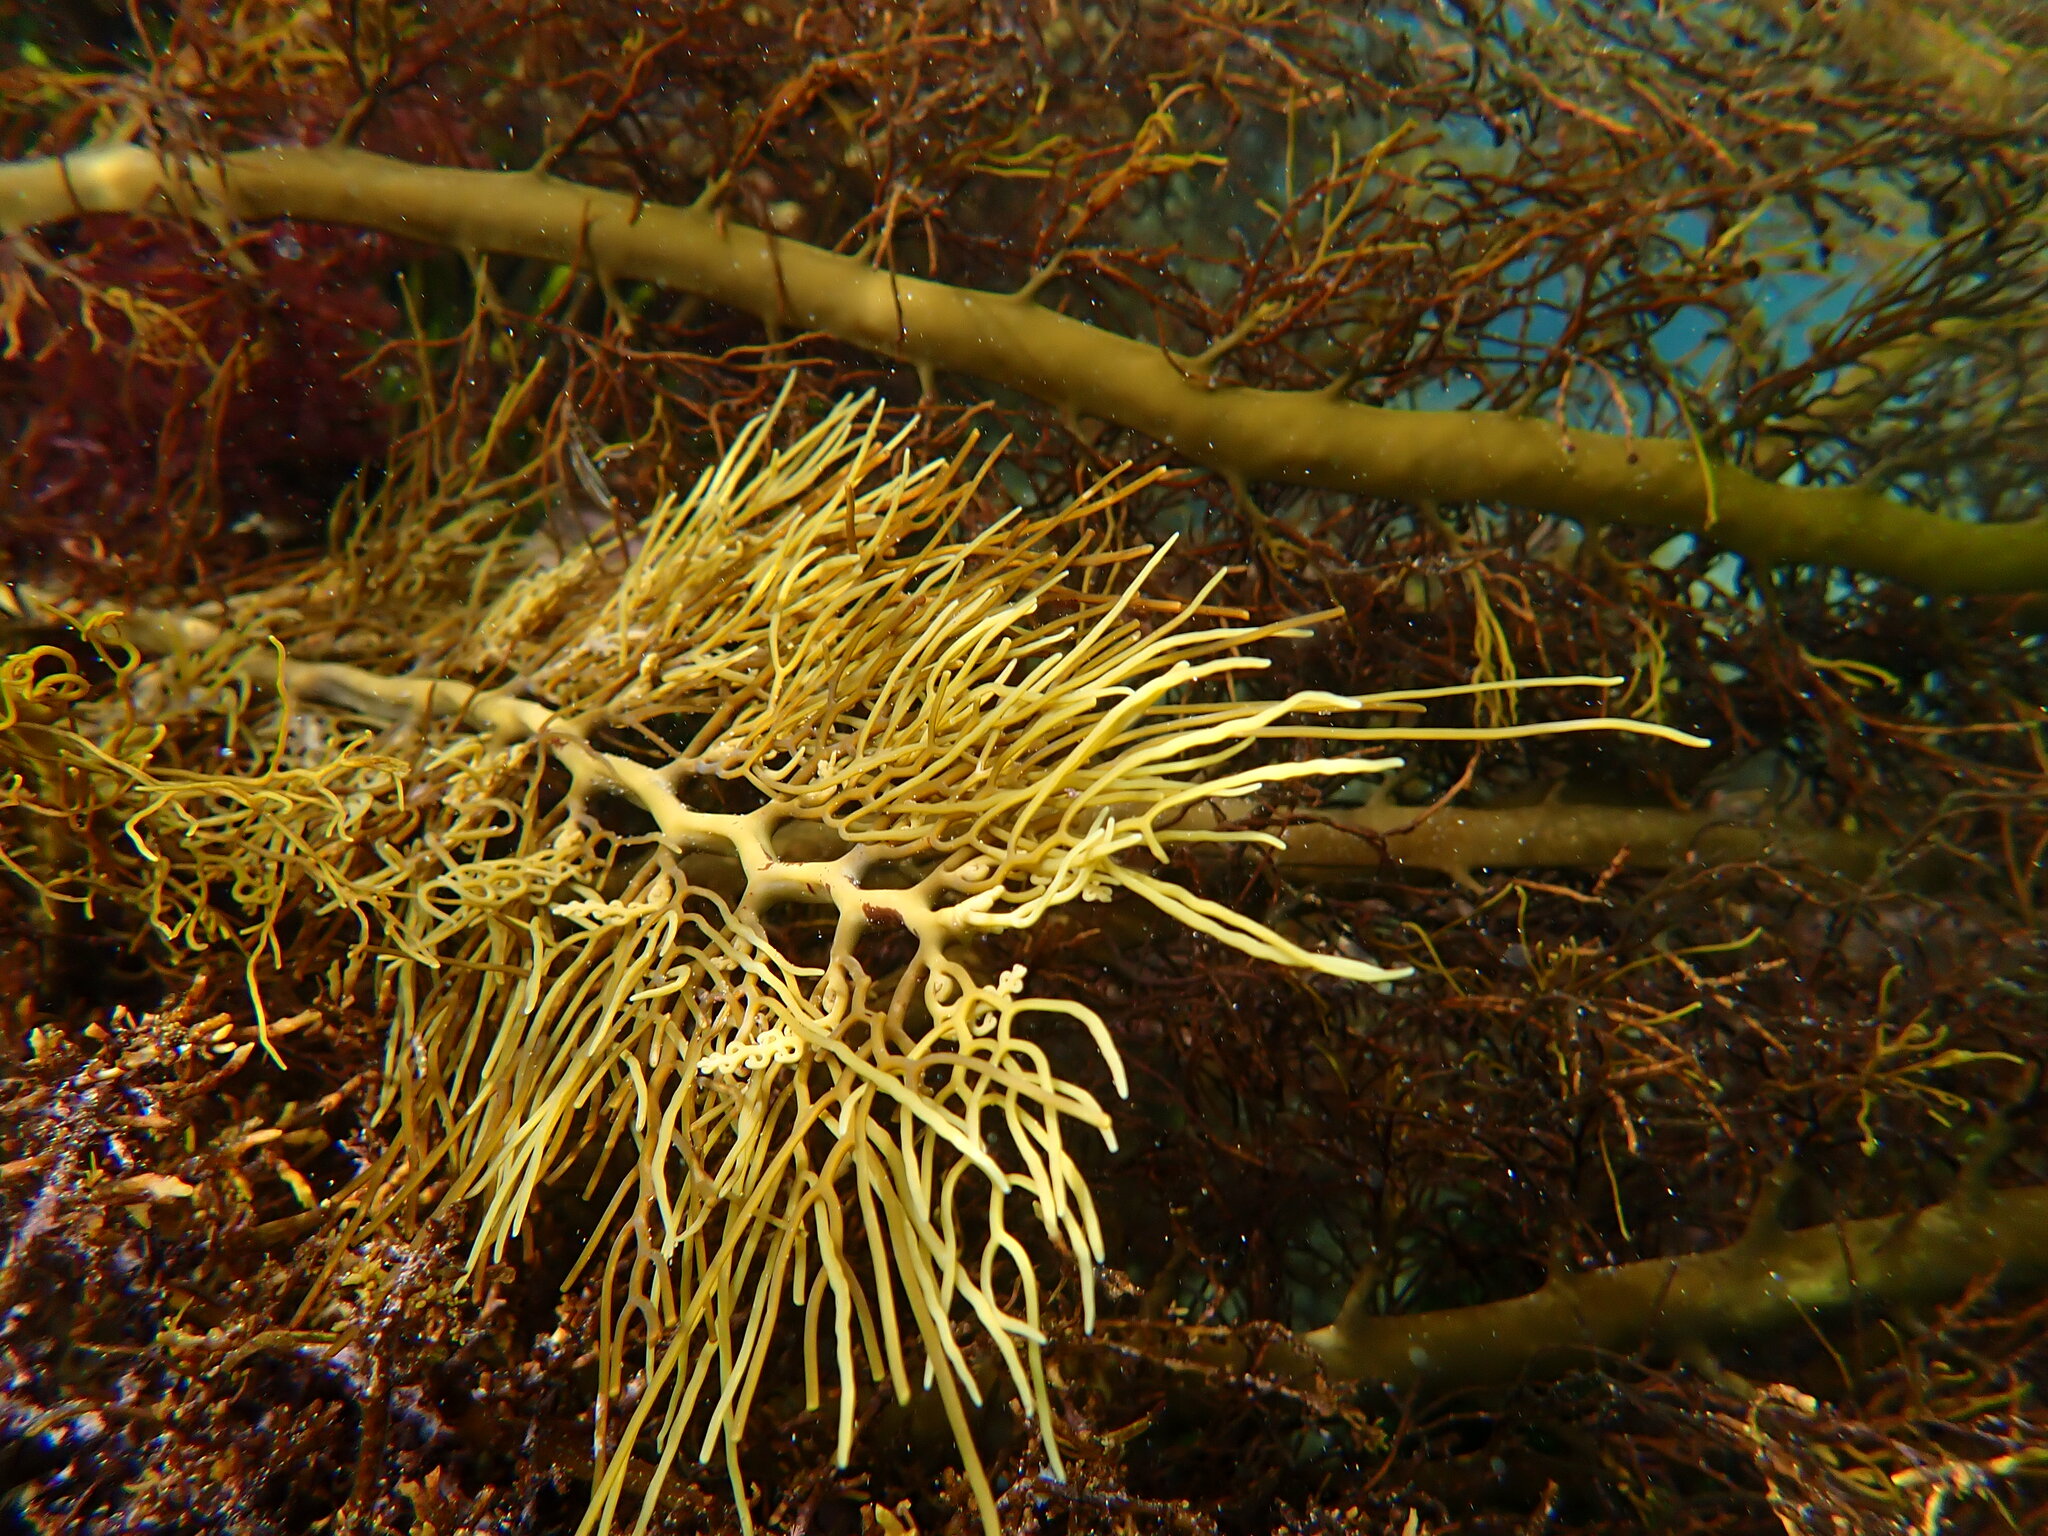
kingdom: Chromista
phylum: Ochrophyta
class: Phaeophyceae
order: Fucales
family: Sargassaceae
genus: Cystophora
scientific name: Cystophora
